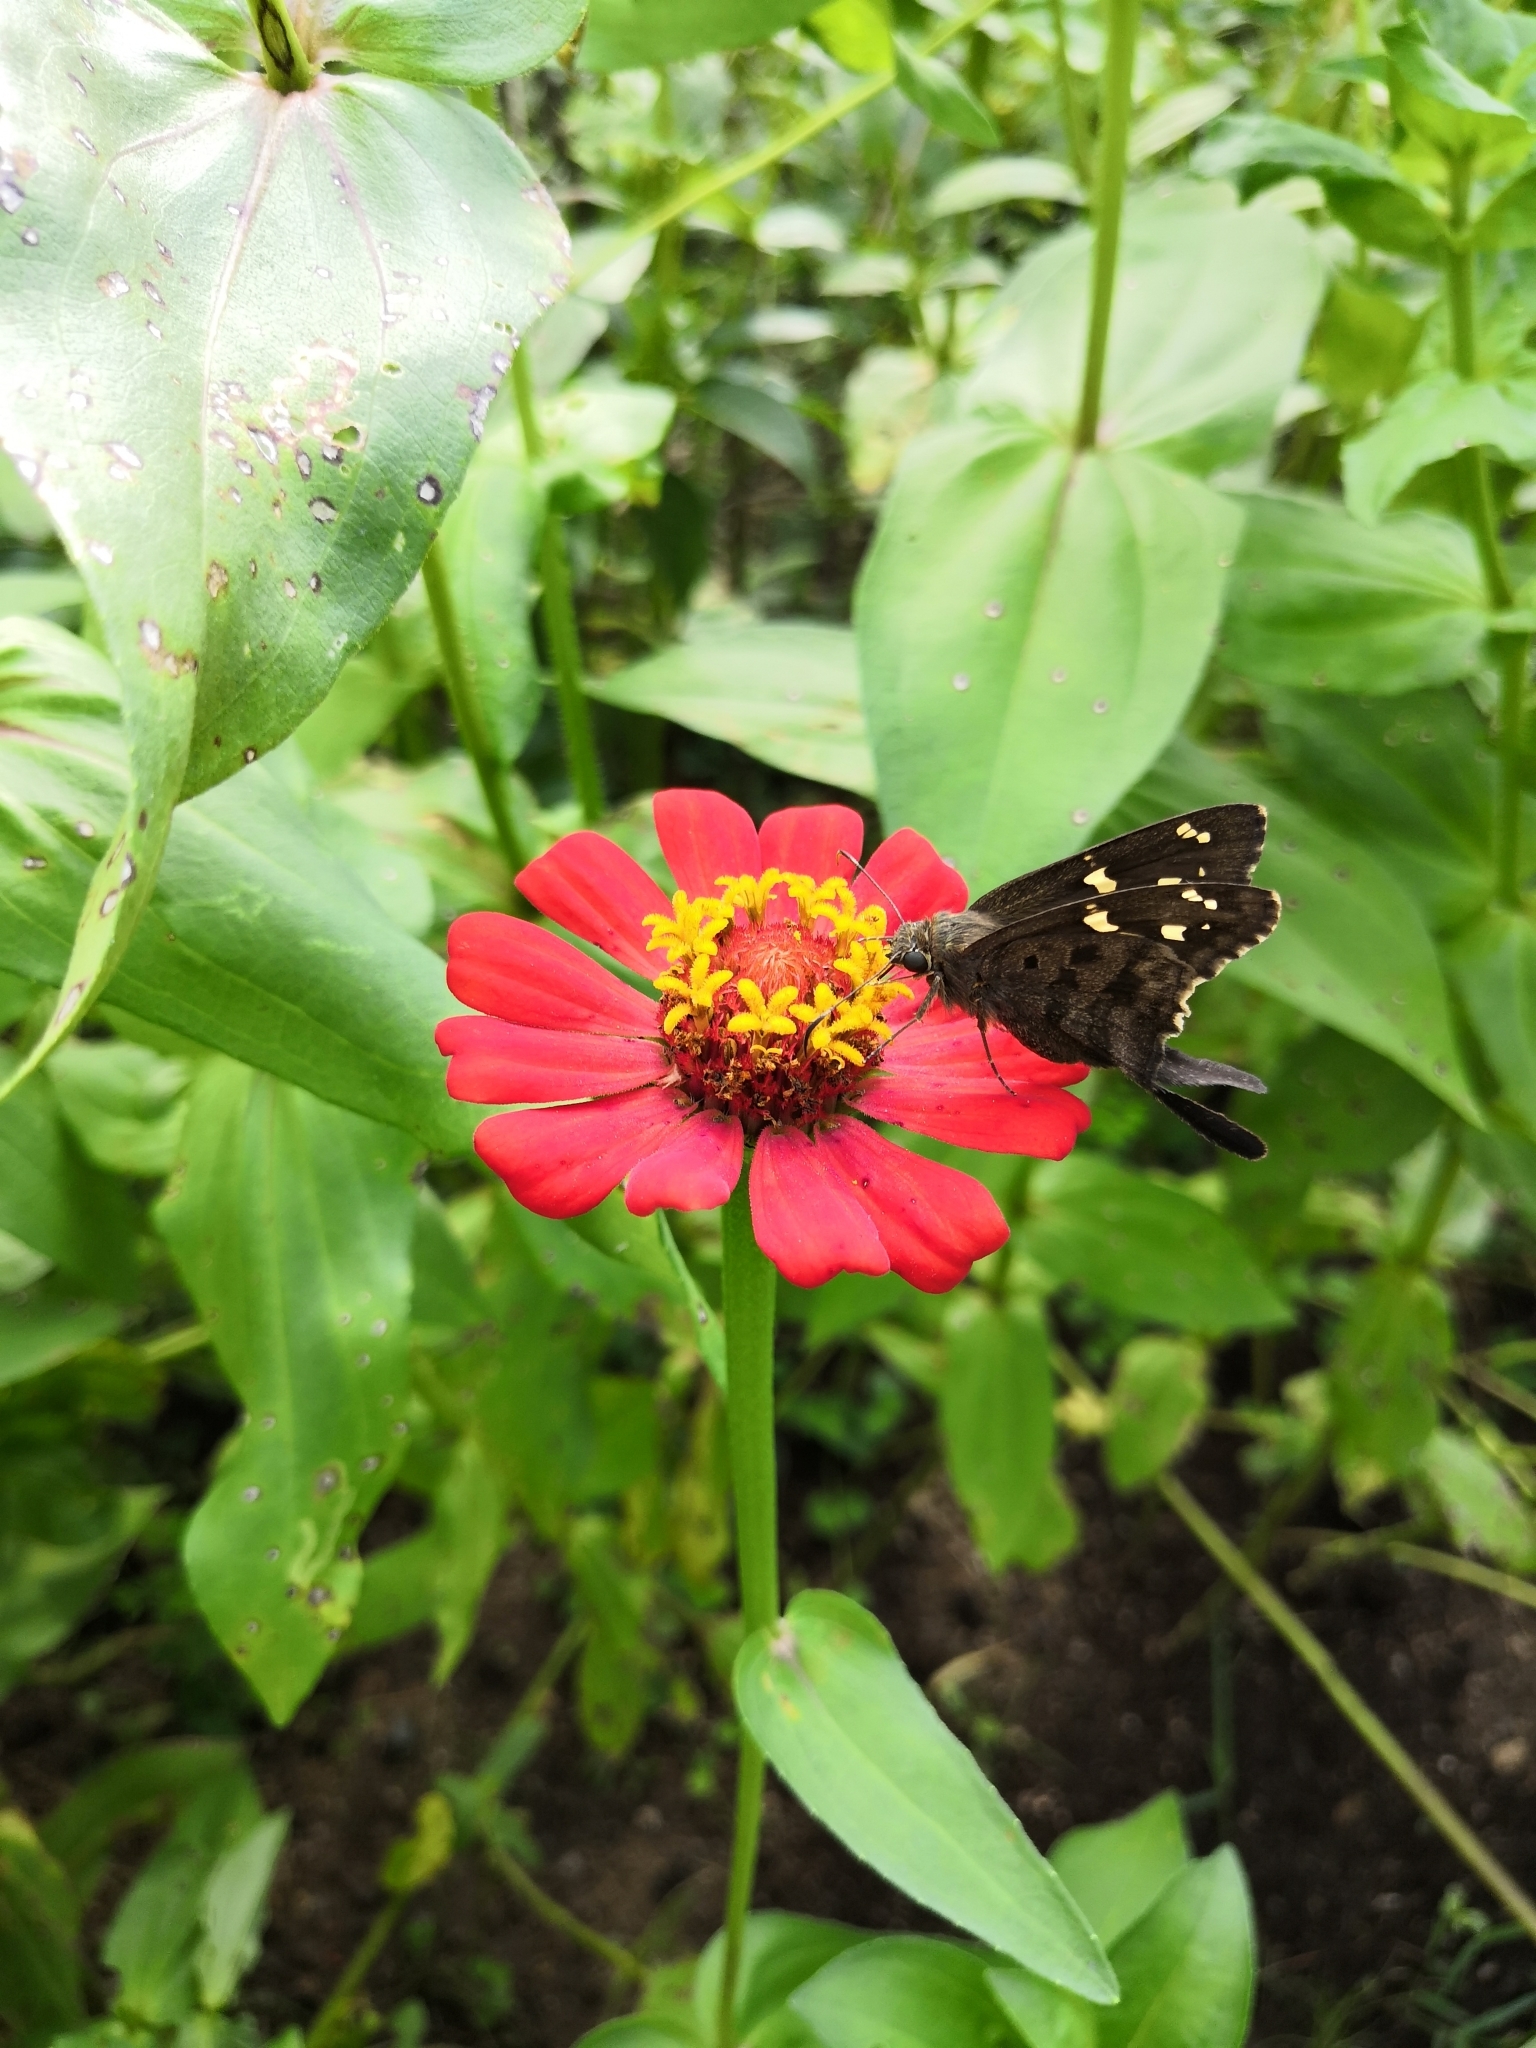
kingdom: Animalia
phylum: Arthropoda
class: Insecta
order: Lepidoptera
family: Hesperiidae
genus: Thorybes
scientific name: Thorybes
